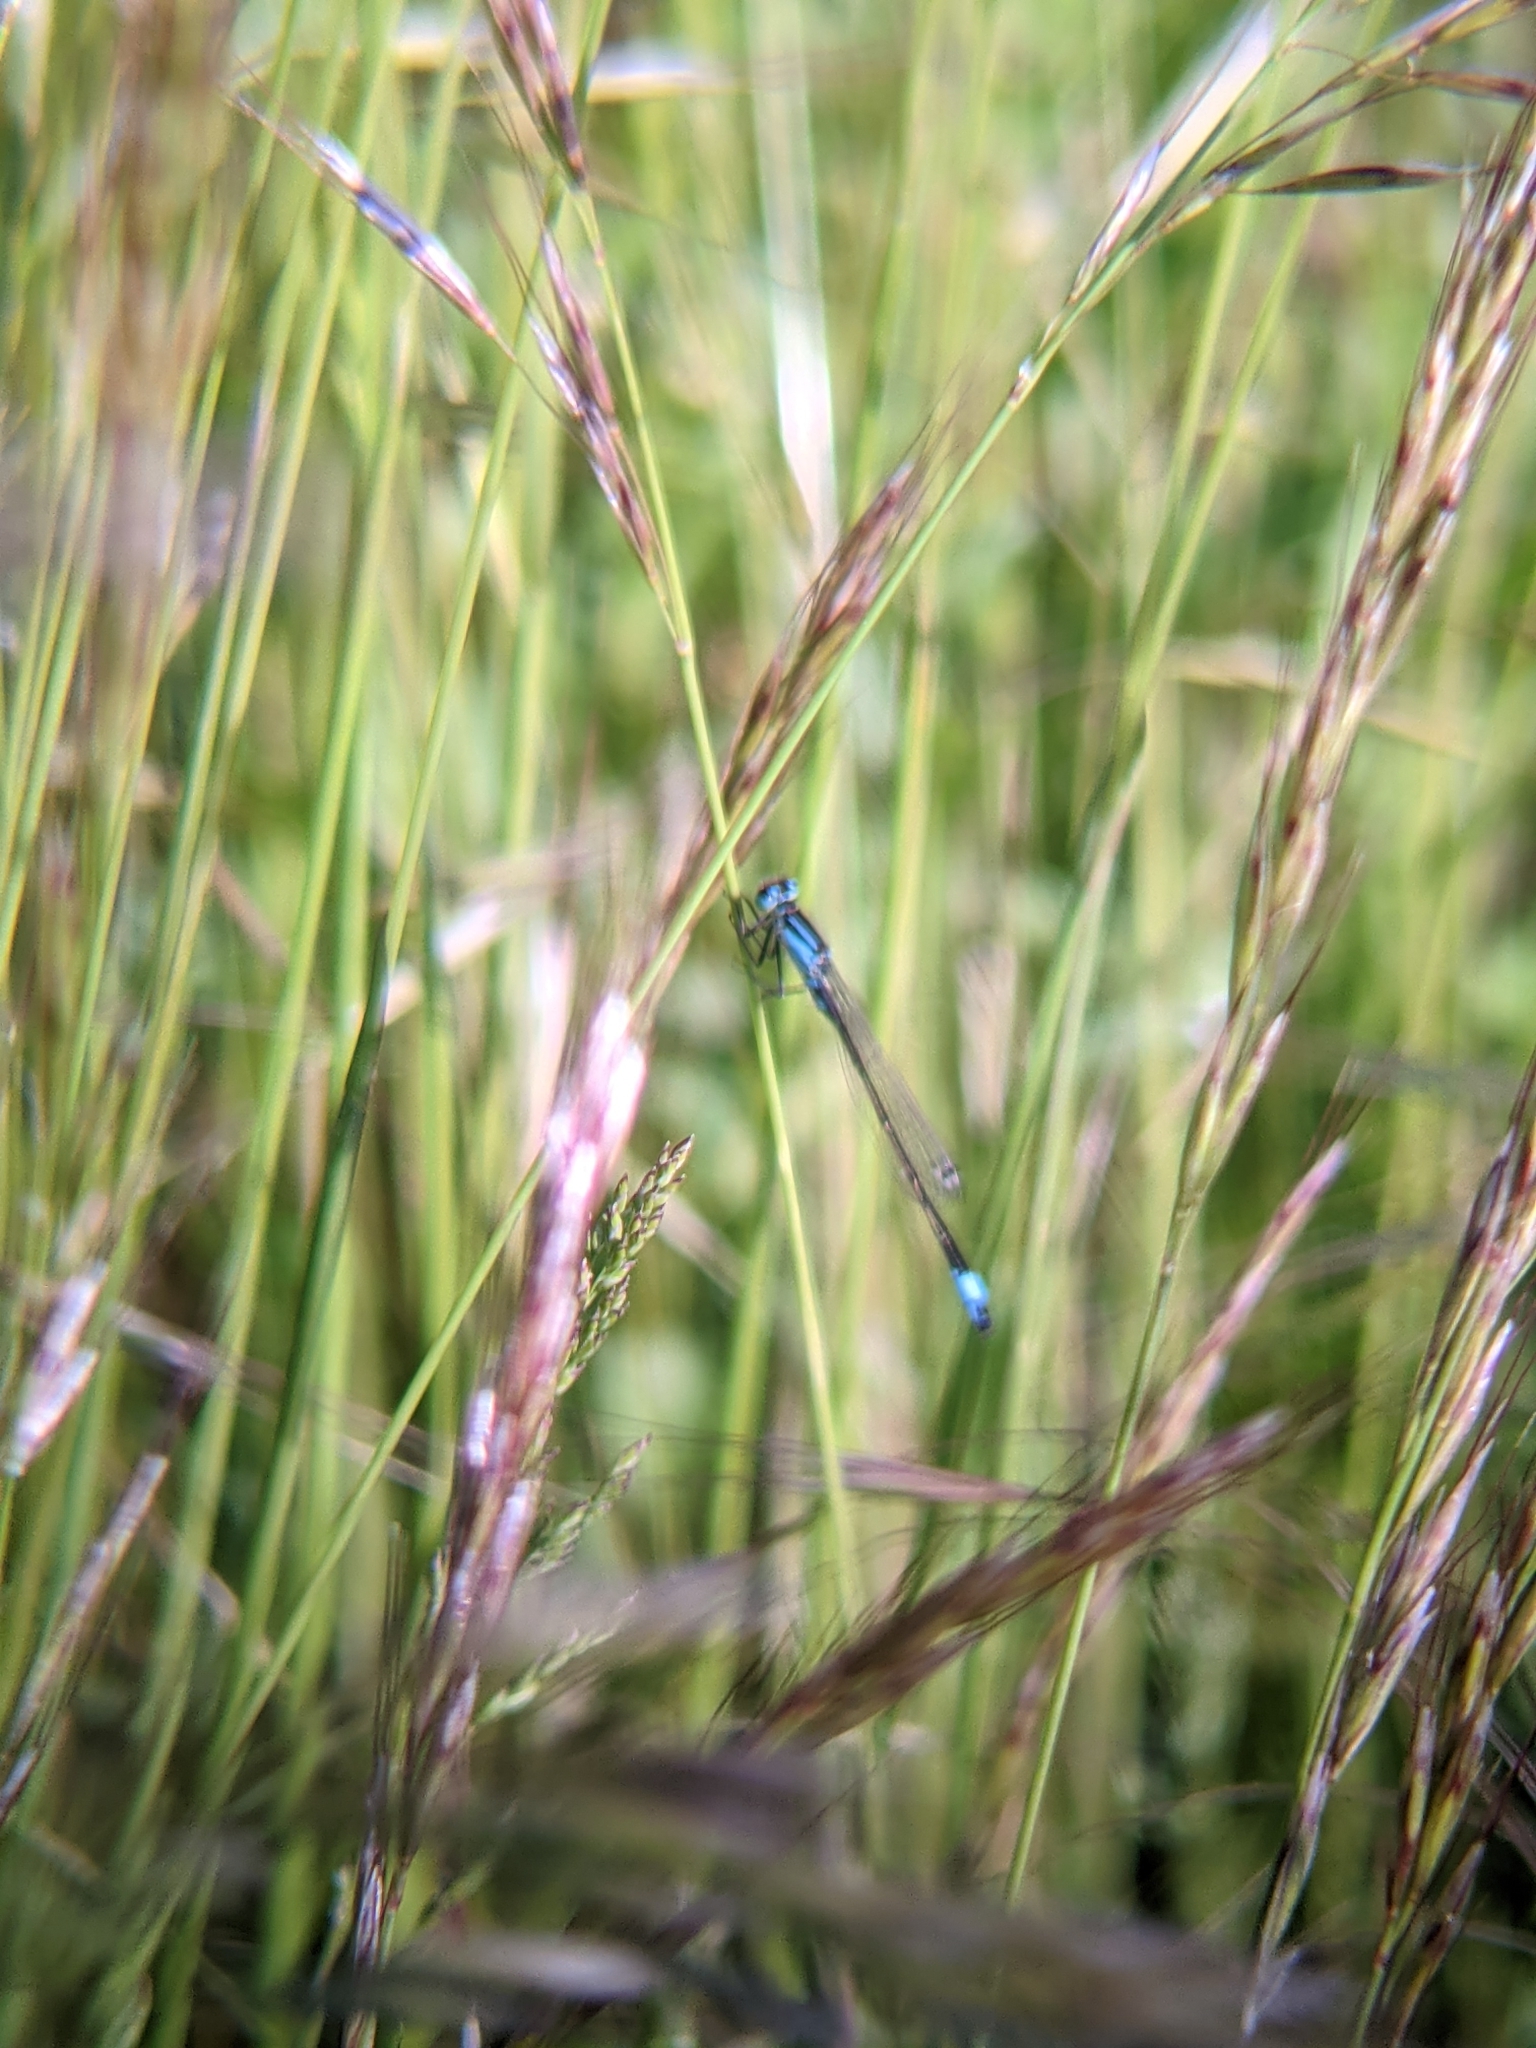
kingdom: Animalia
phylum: Arthropoda
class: Insecta
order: Odonata
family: Coenagrionidae
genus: Ischnura
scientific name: Ischnura elegans
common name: Blue-tailed damselfly
